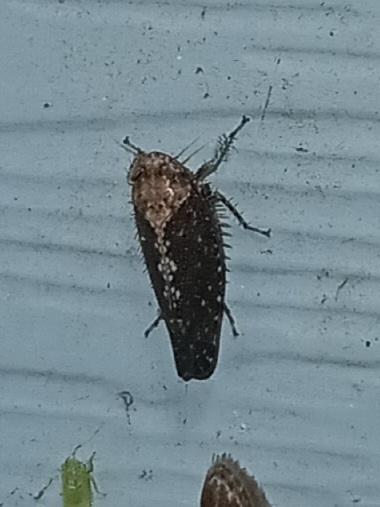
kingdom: Animalia
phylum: Arthropoda
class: Insecta
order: Hemiptera
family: Cicadellidae
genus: Excultanus
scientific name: Excultanus excultus
